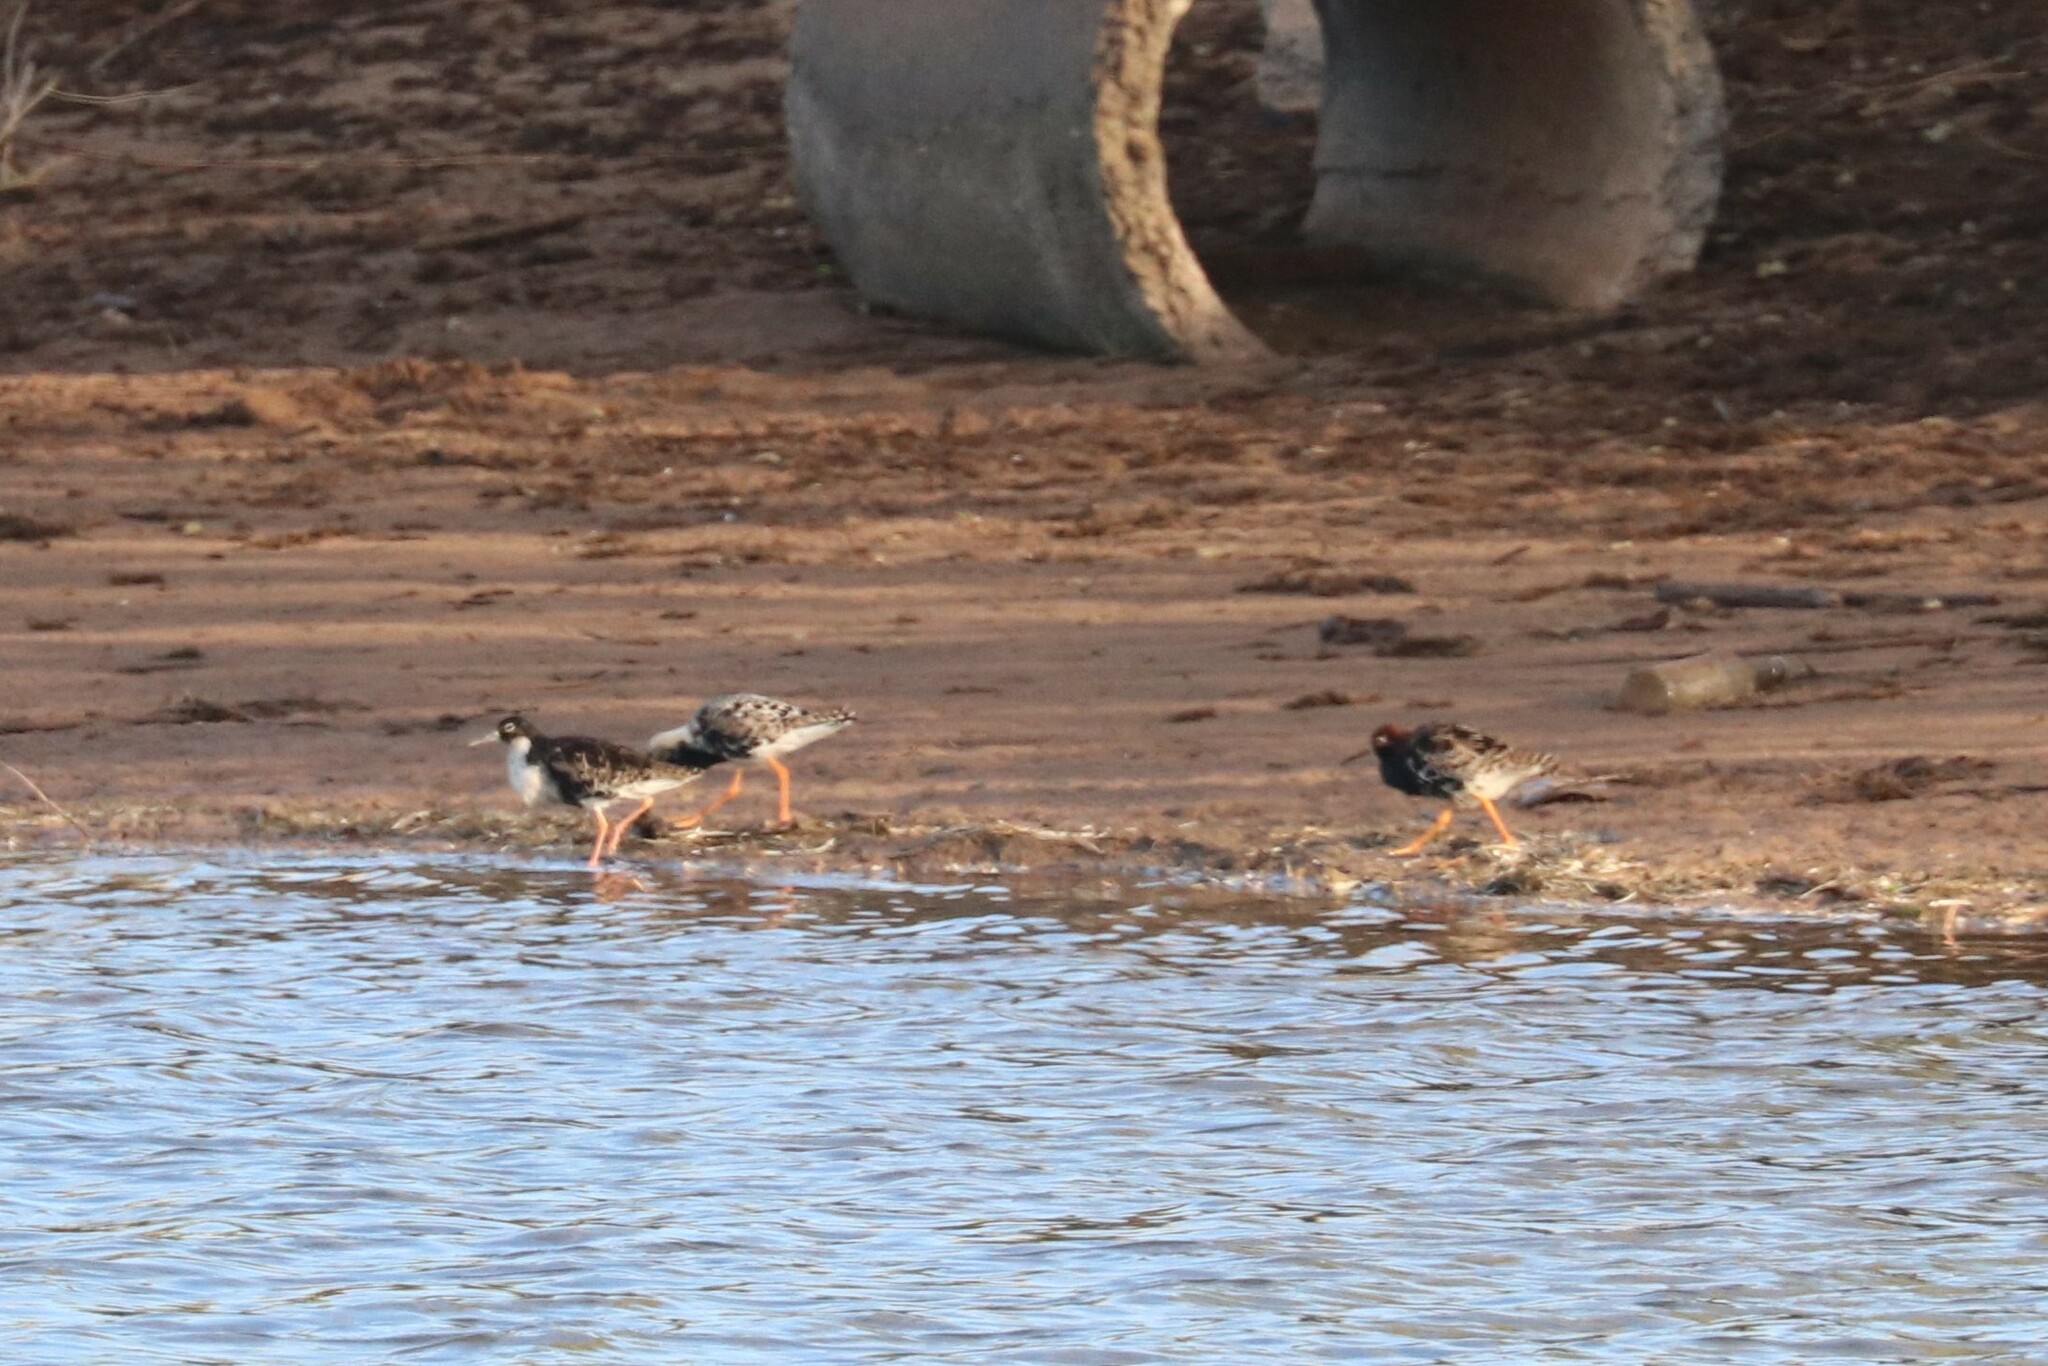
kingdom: Animalia
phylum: Chordata
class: Aves
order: Charadriiformes
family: Scolopacidae
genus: Calidris
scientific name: Calidris pugnax
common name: Ruff
